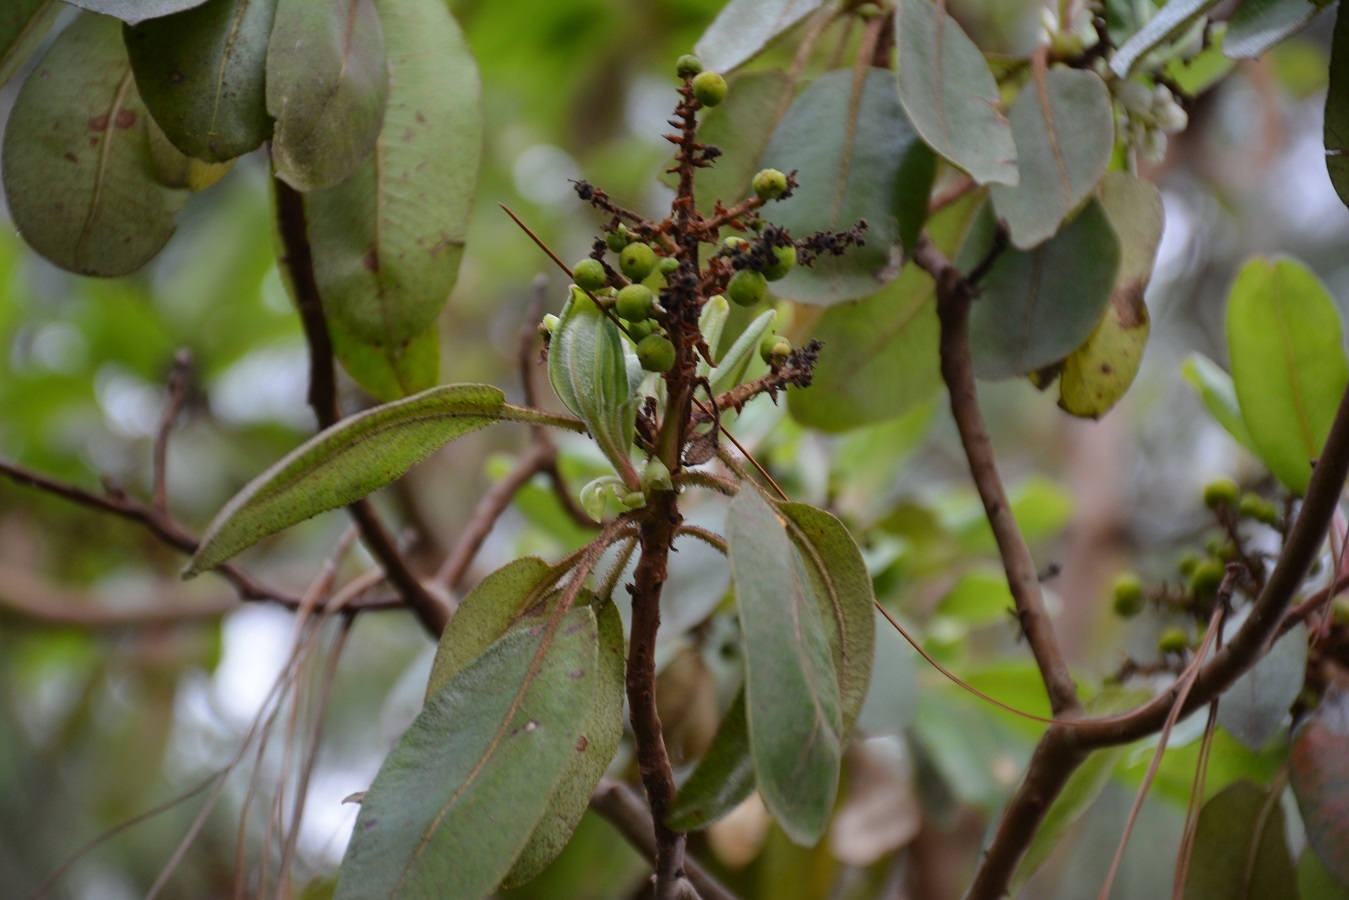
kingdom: Plantae
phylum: Tracheophyta
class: Magnoliopsida
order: Ericales
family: Ericaceae
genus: Arbutus
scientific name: Arbutus xalapensis
